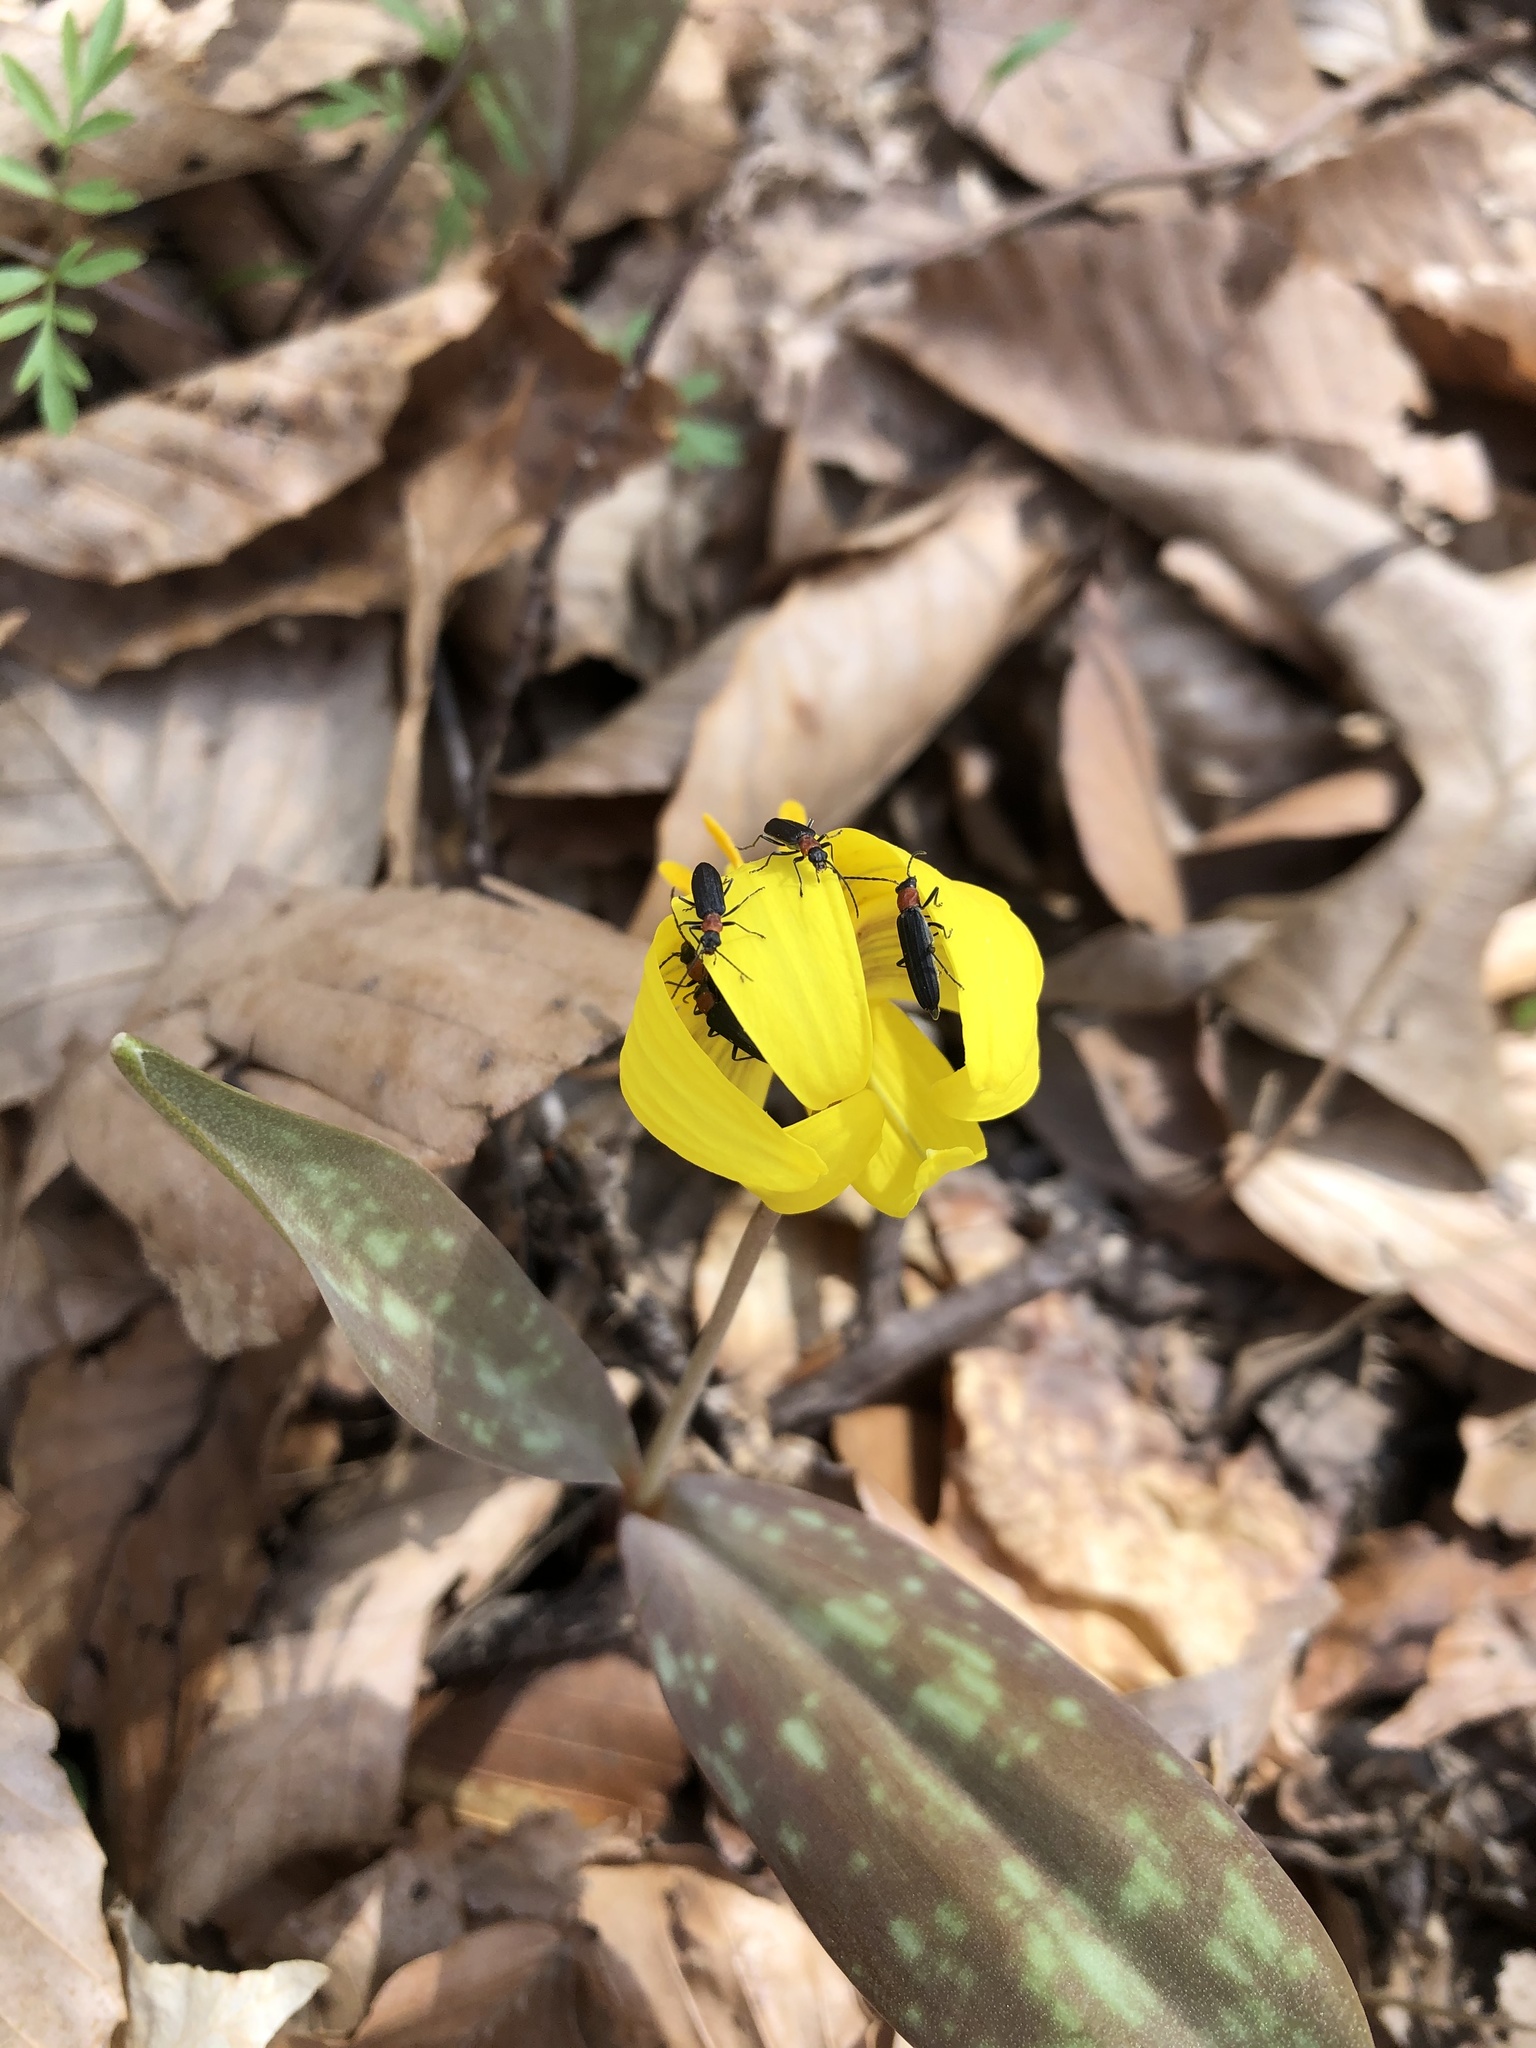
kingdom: Animalia
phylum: Arthropoda
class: Insecta
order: Coleoptera
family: Oedemeridae
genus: Ischnomera
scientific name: Ischnomera
